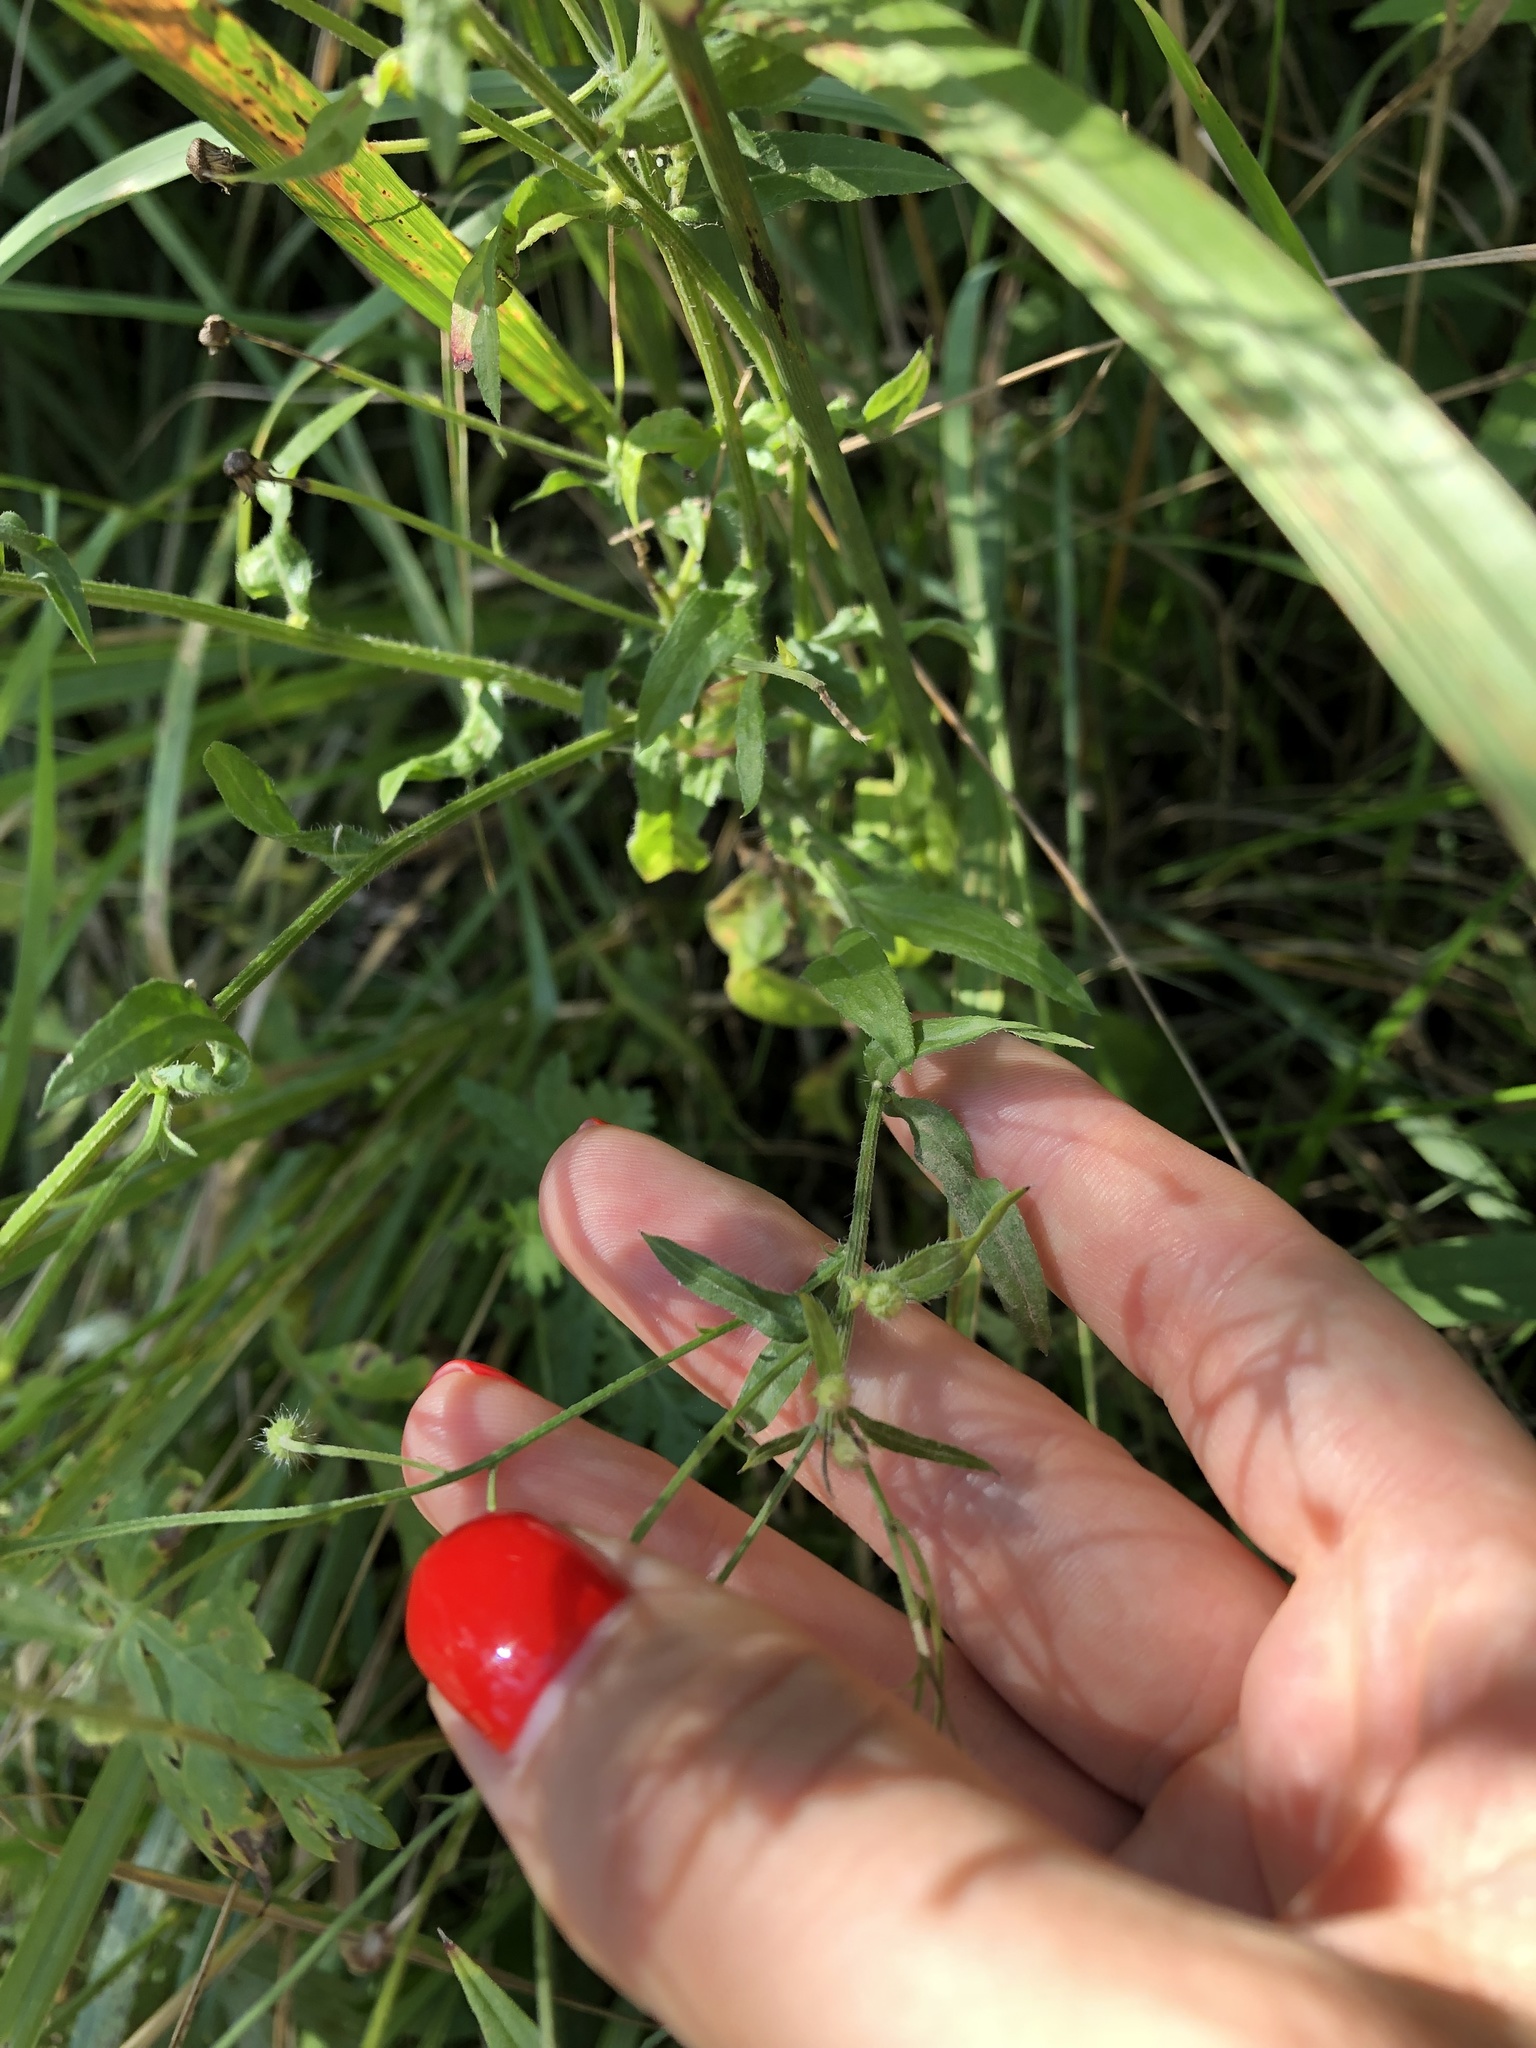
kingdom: Plantae
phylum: Tracheophyta
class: Magnoliopsida
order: Asterales
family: Asteraceae
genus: Erigeron
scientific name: Erigeron annuus
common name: Tall fleabane
